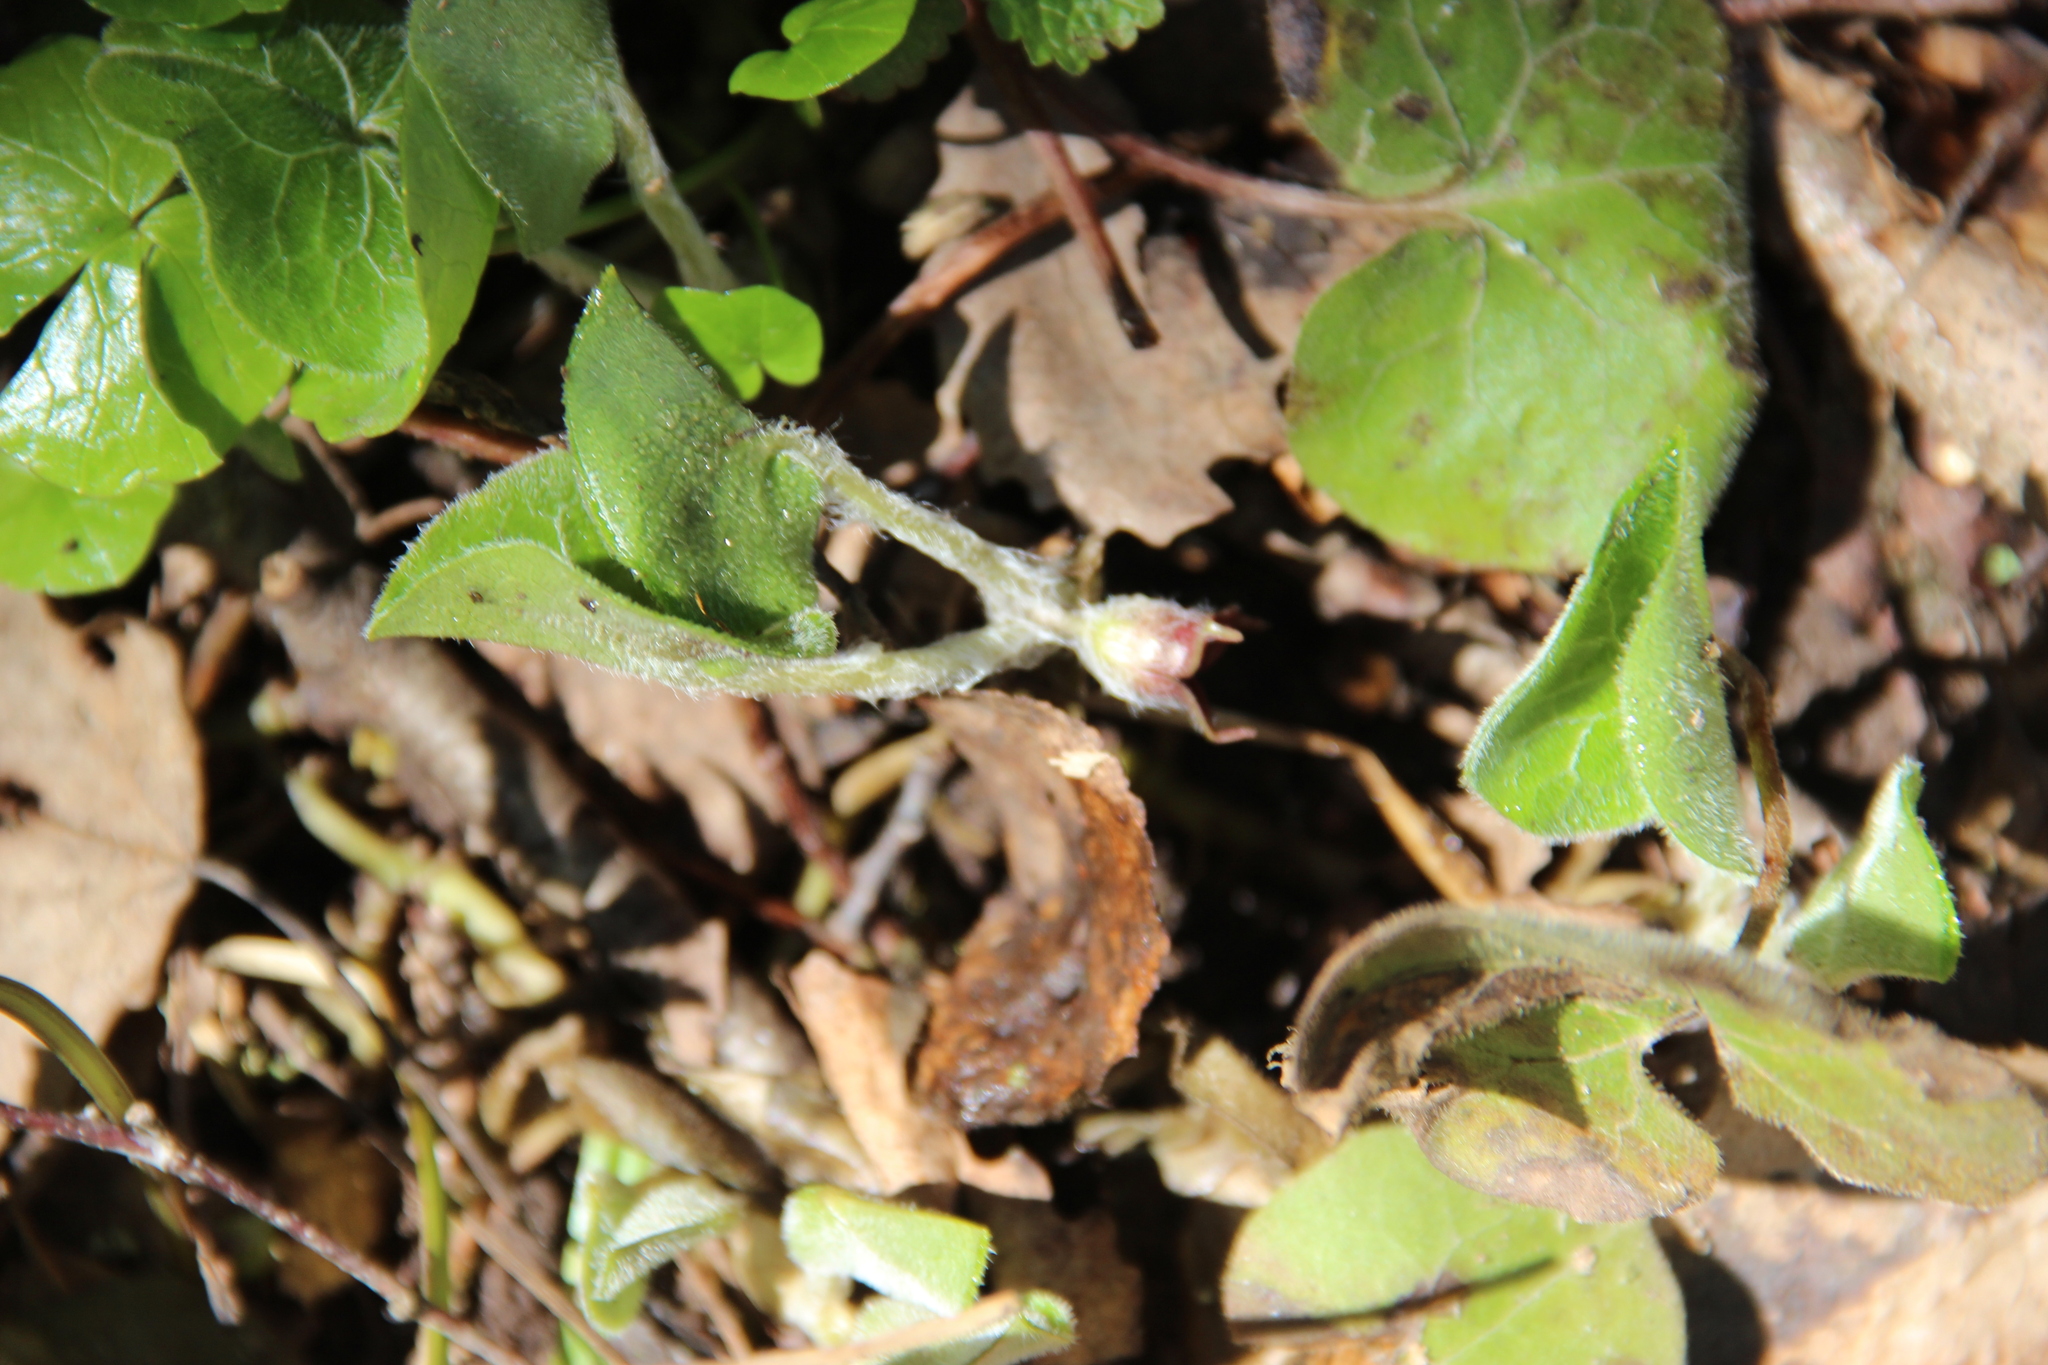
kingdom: Plantae
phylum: Tracheophyta
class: Magnoliopsida
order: Piperales
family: Aristolochiaceae
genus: Asarum
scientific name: Asarum europaeum
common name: Asarabacca
